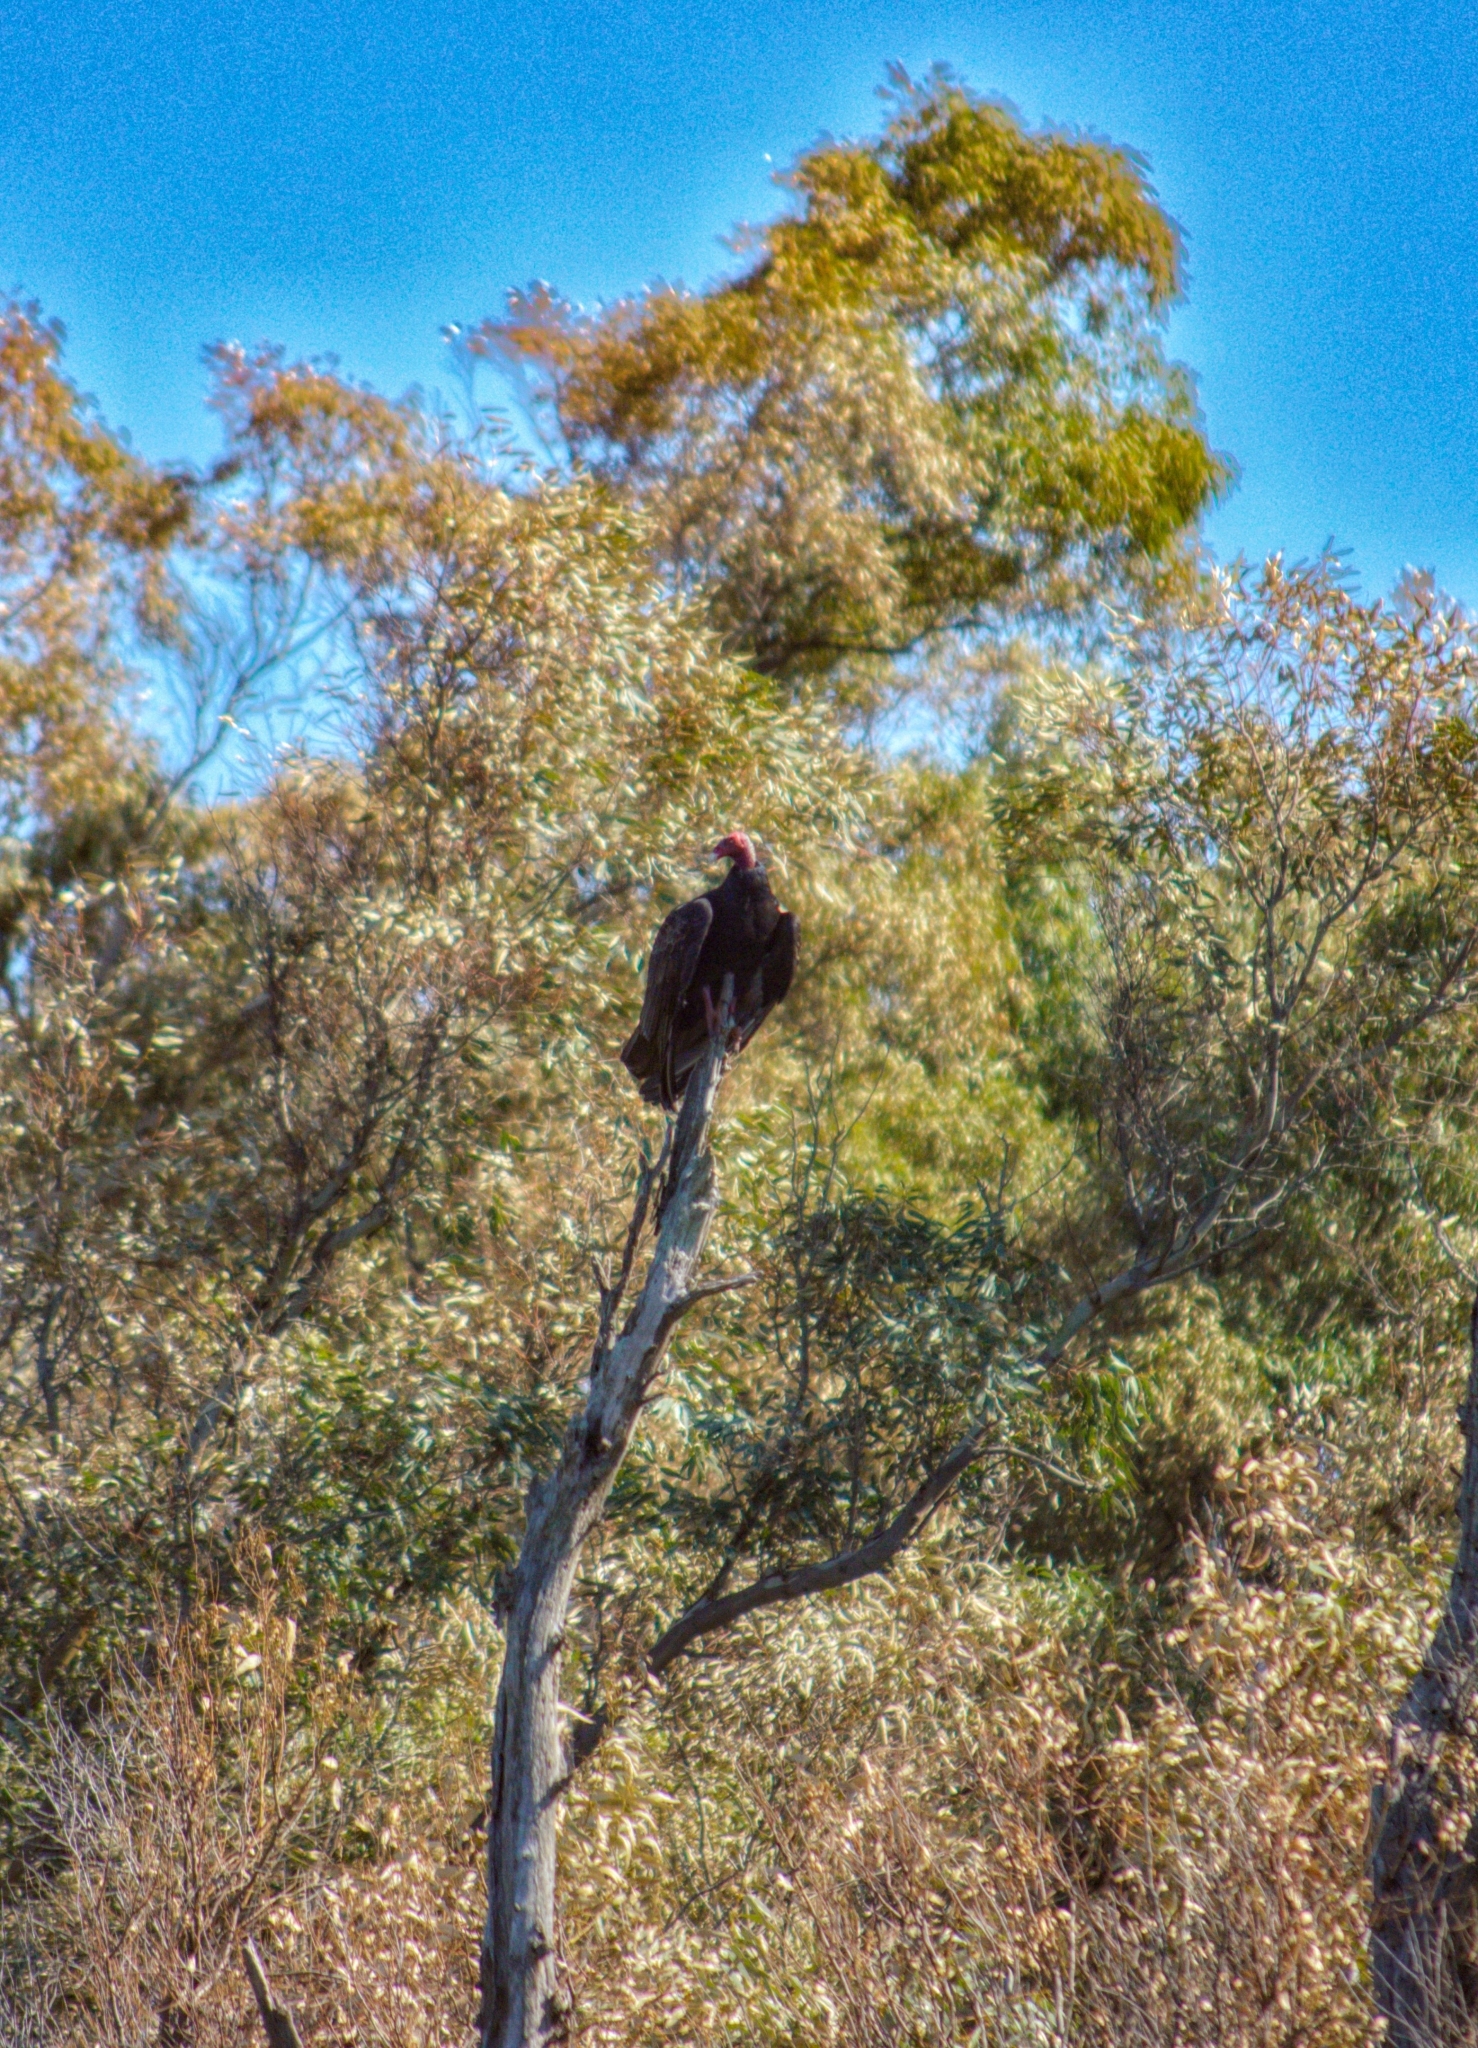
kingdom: Animalia
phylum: Chordata
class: Aves
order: Accipitriformes
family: Cathartidae
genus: Cathartes
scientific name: Cathartes aura
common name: Turkey vulture
